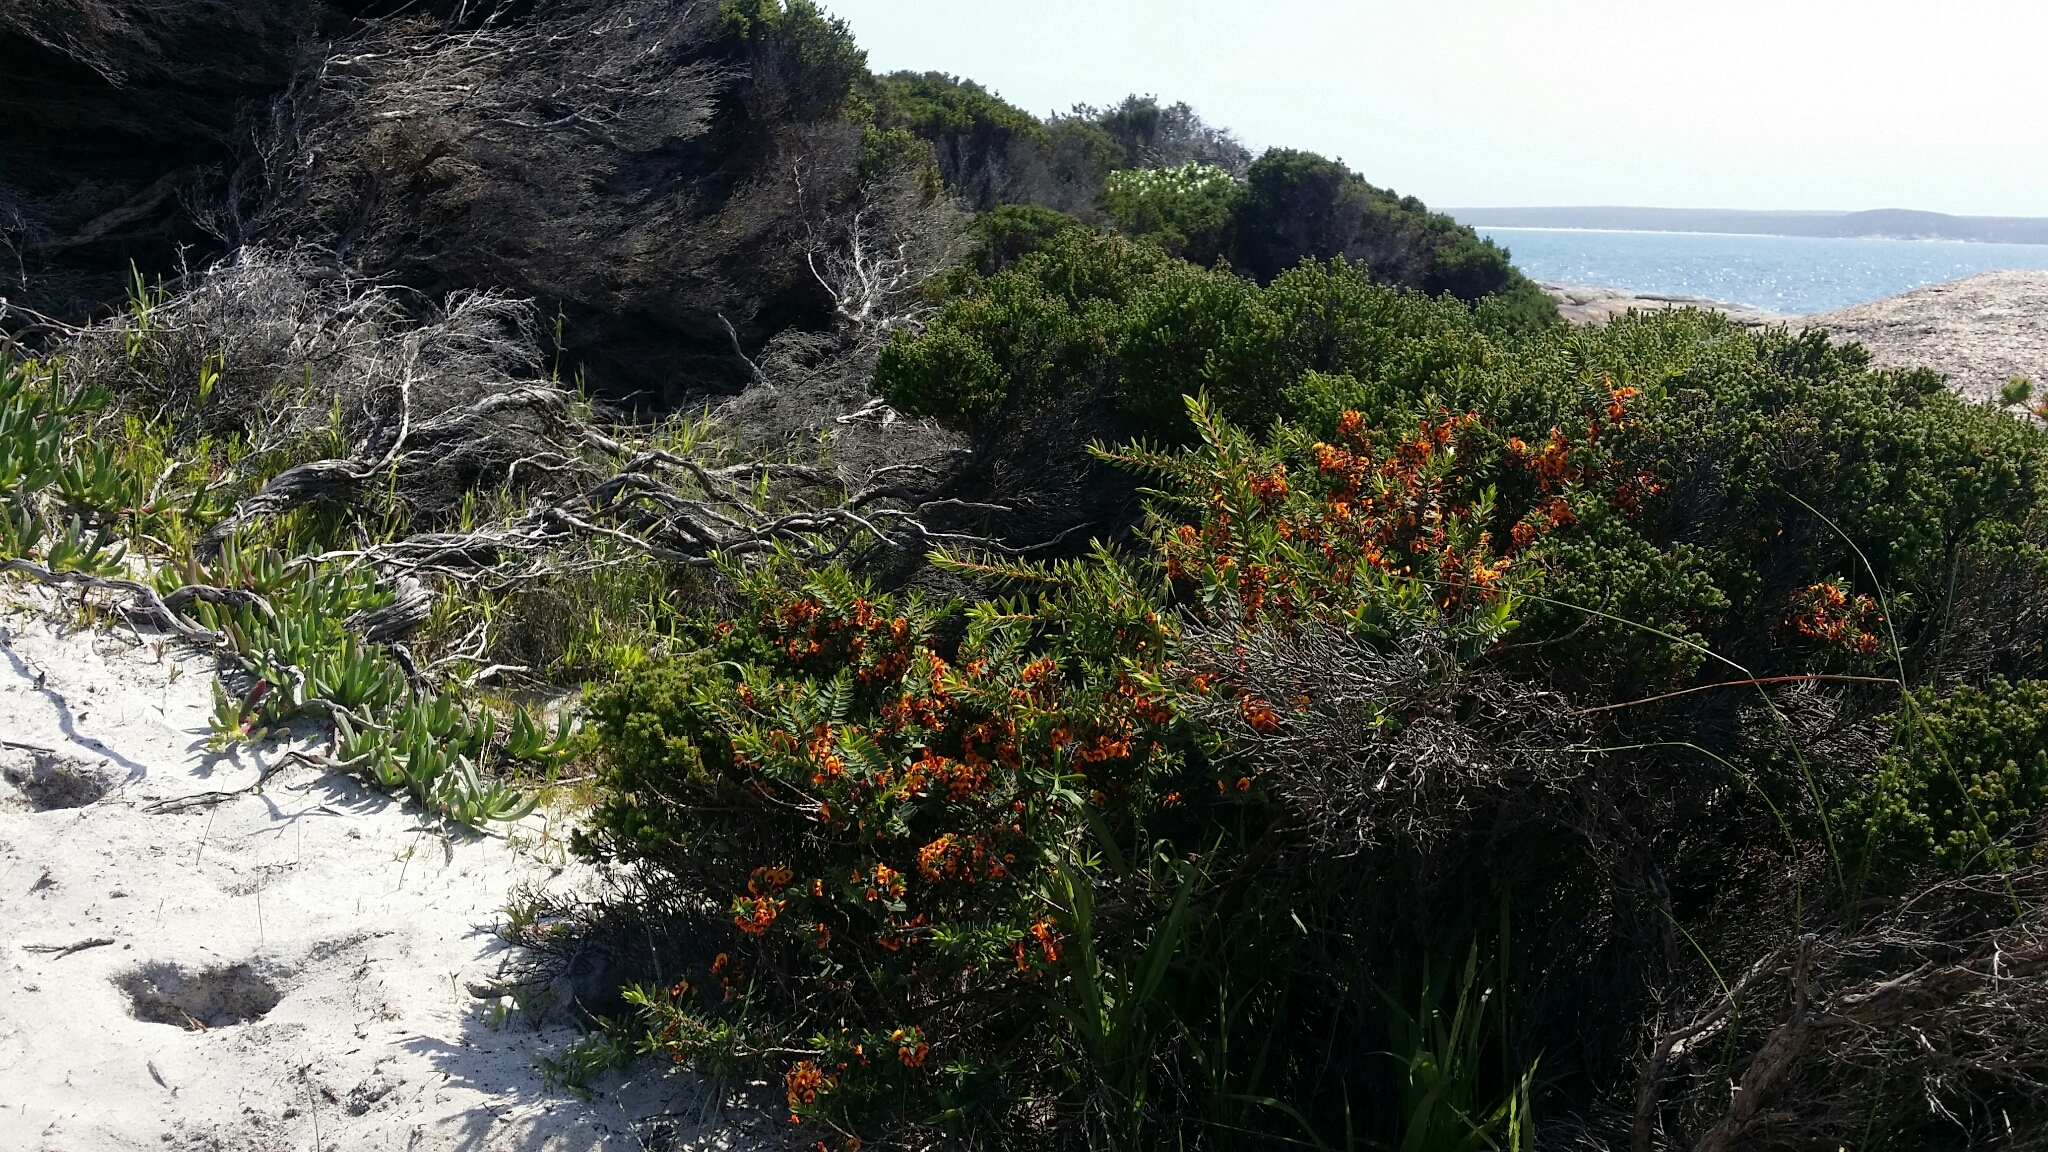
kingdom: Plantae
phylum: Tracheophyta
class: Magnoliopsida
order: Fabales
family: Fabaceae
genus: Eutaxia
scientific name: Eutaxia myrtifolia
